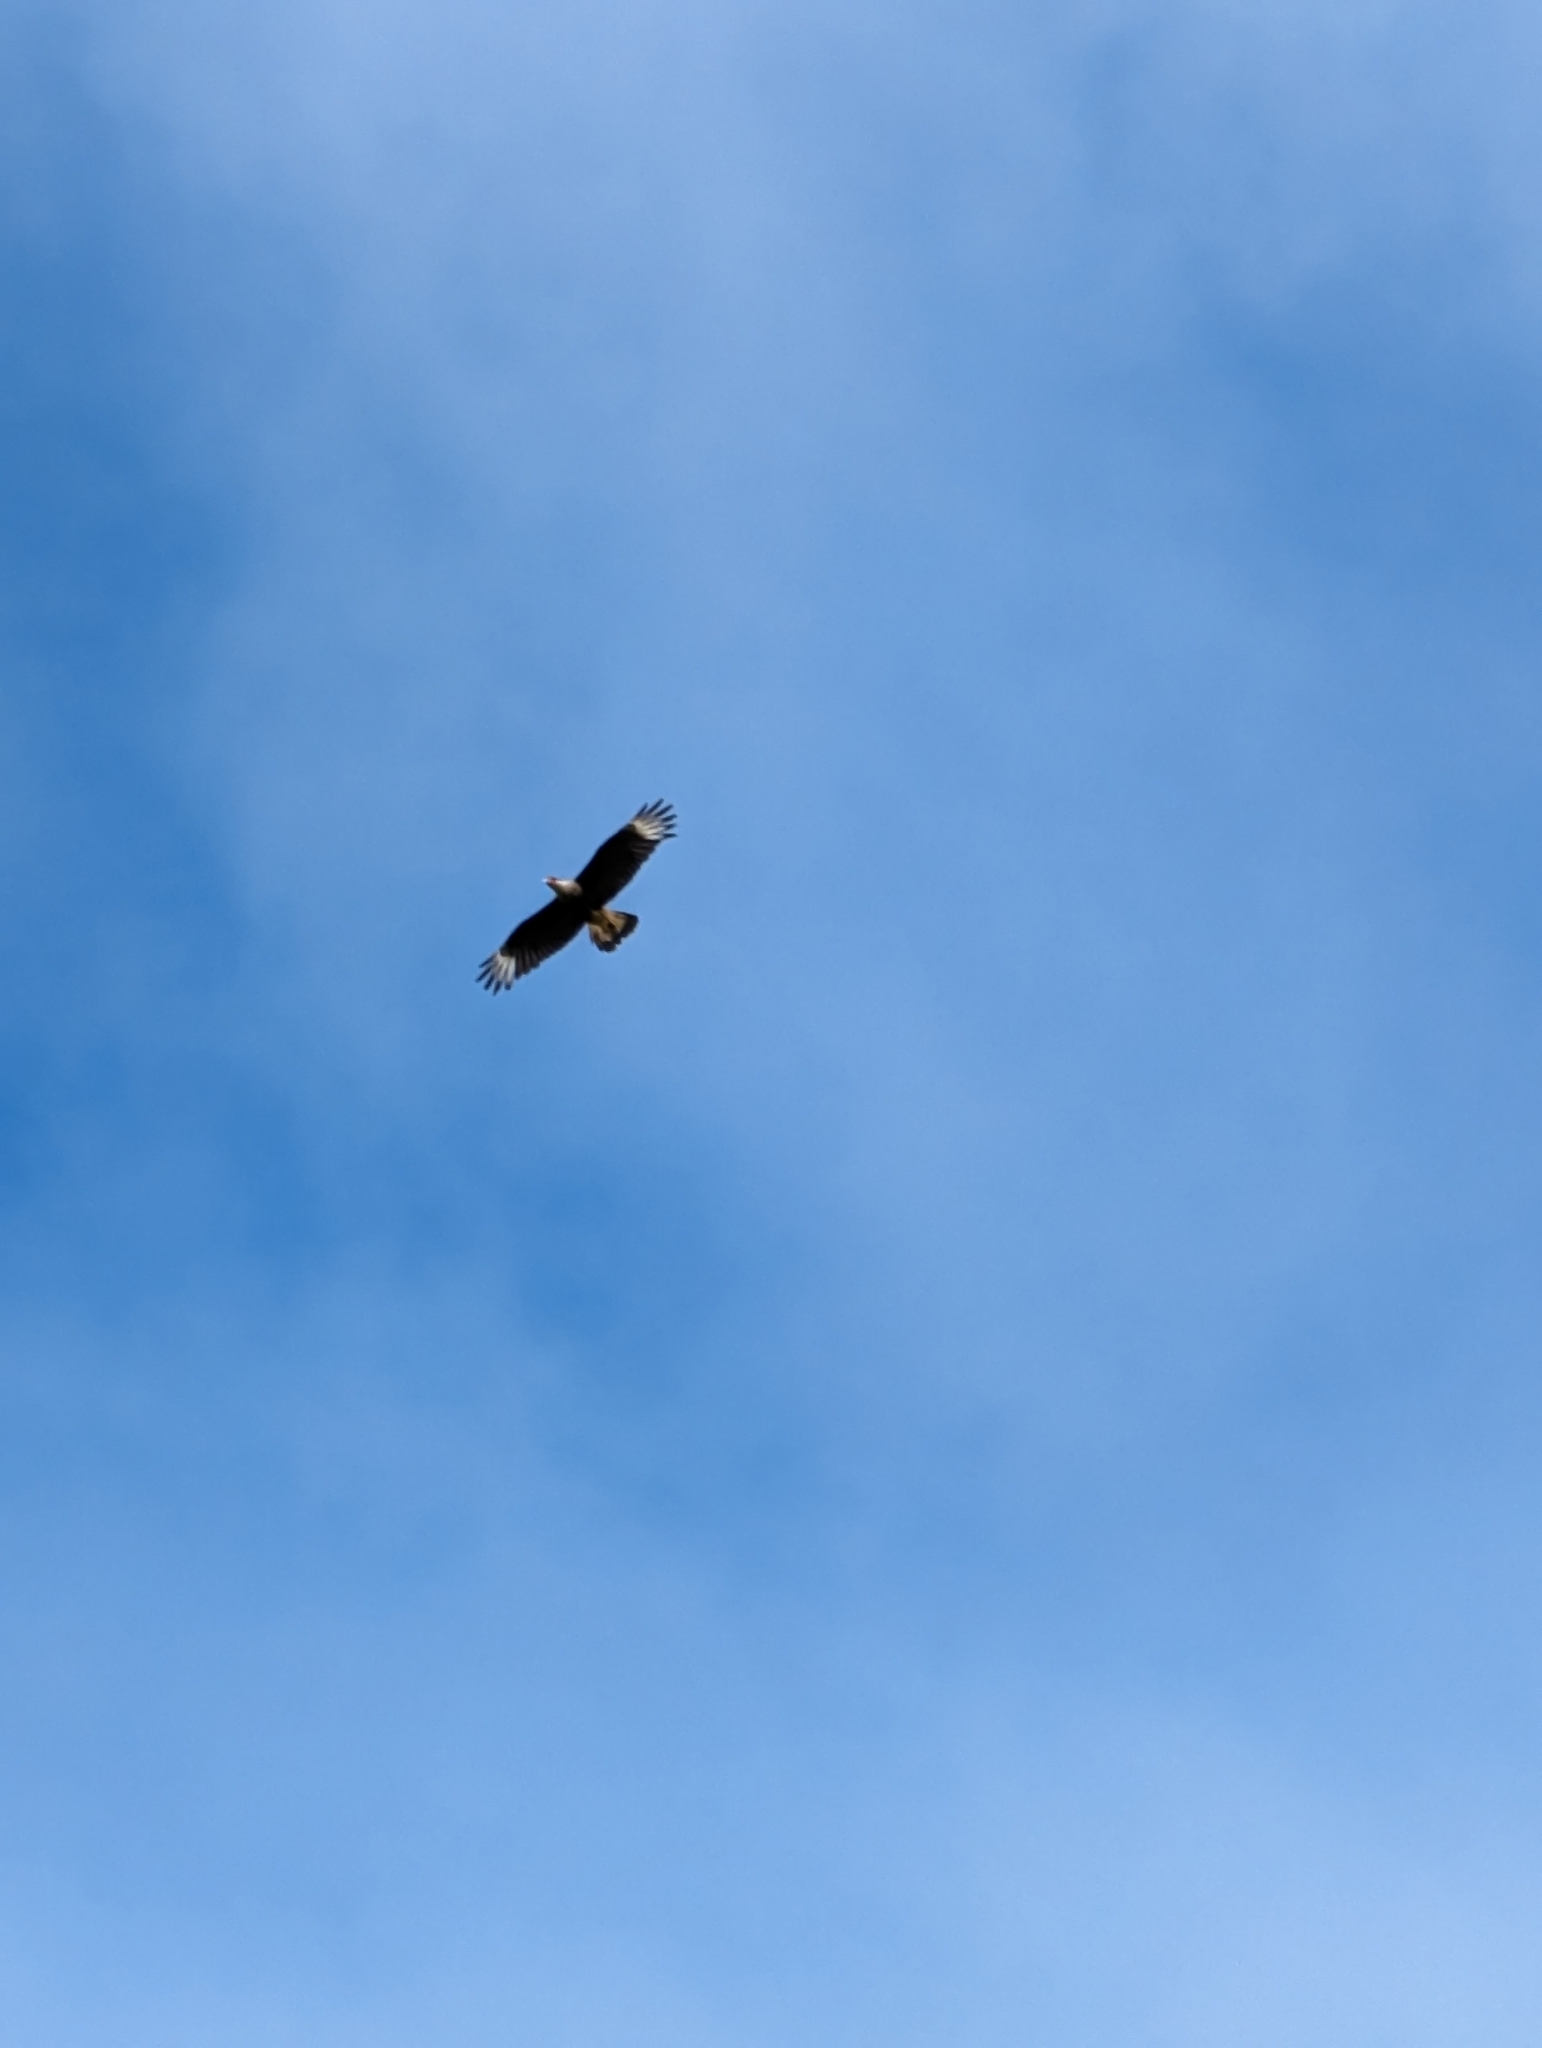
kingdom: Animalia
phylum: Chordata
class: Aves
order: Falconiformes
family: Falconidae
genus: Caracara
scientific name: Caracara plancus
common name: Southern caracara
